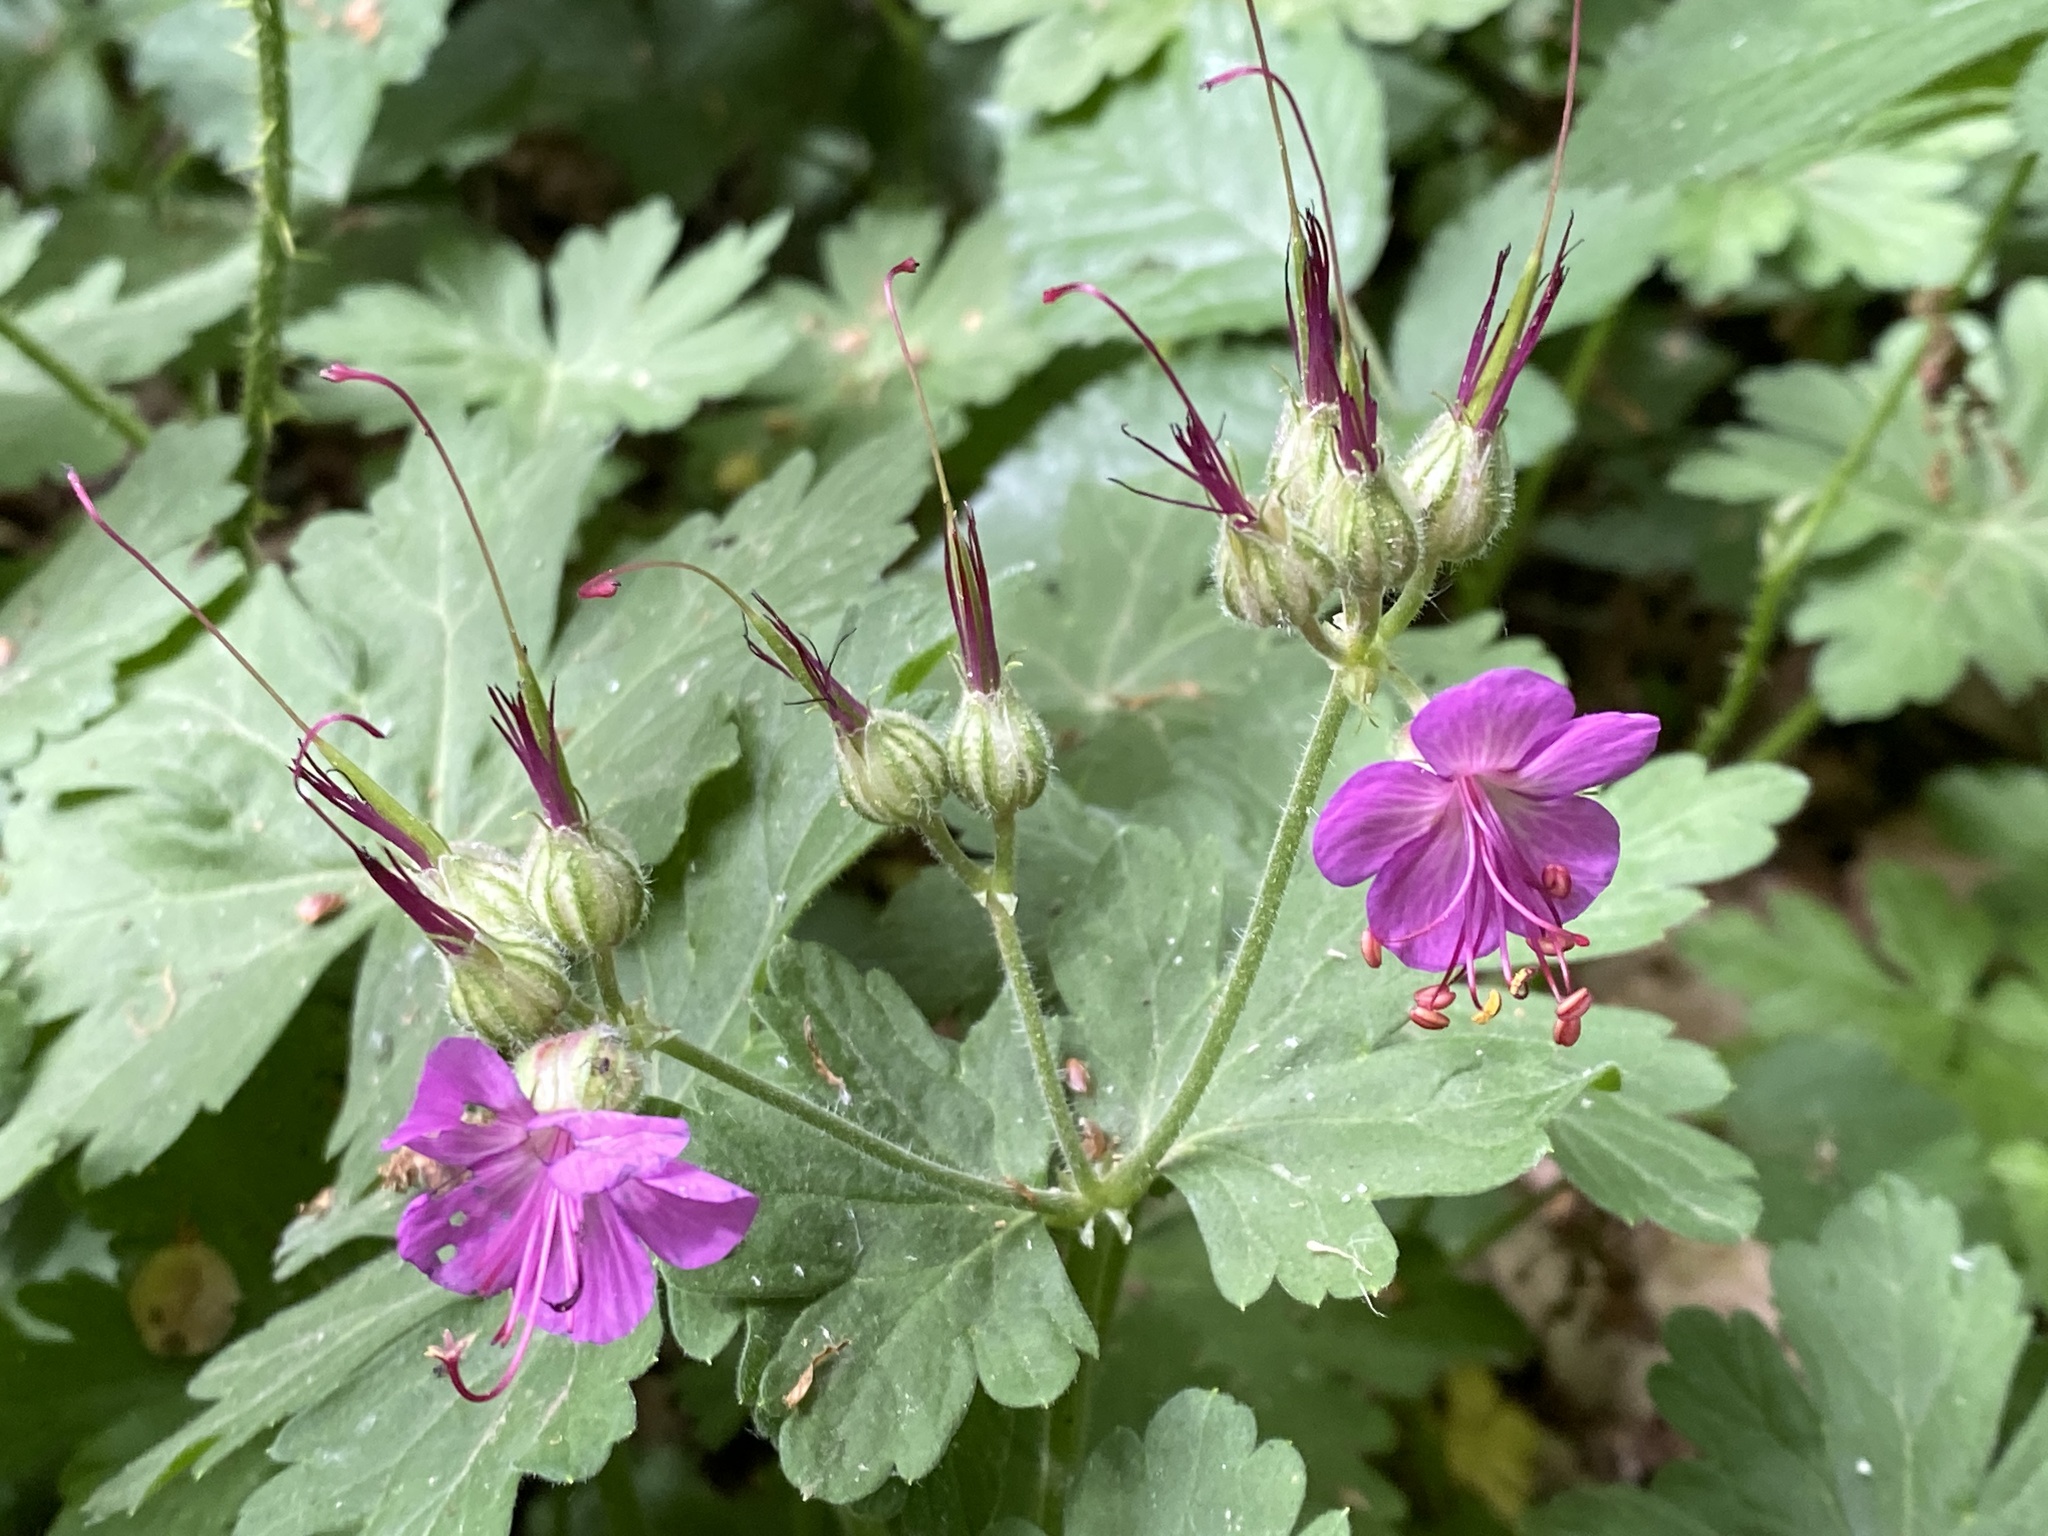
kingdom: Plantae
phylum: Tracheophyta
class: Magnoliopsida
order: Geraniales
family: Geraniaceae
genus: Geranium
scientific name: Geranium macrorrhizum
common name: Rock crane's-bill
